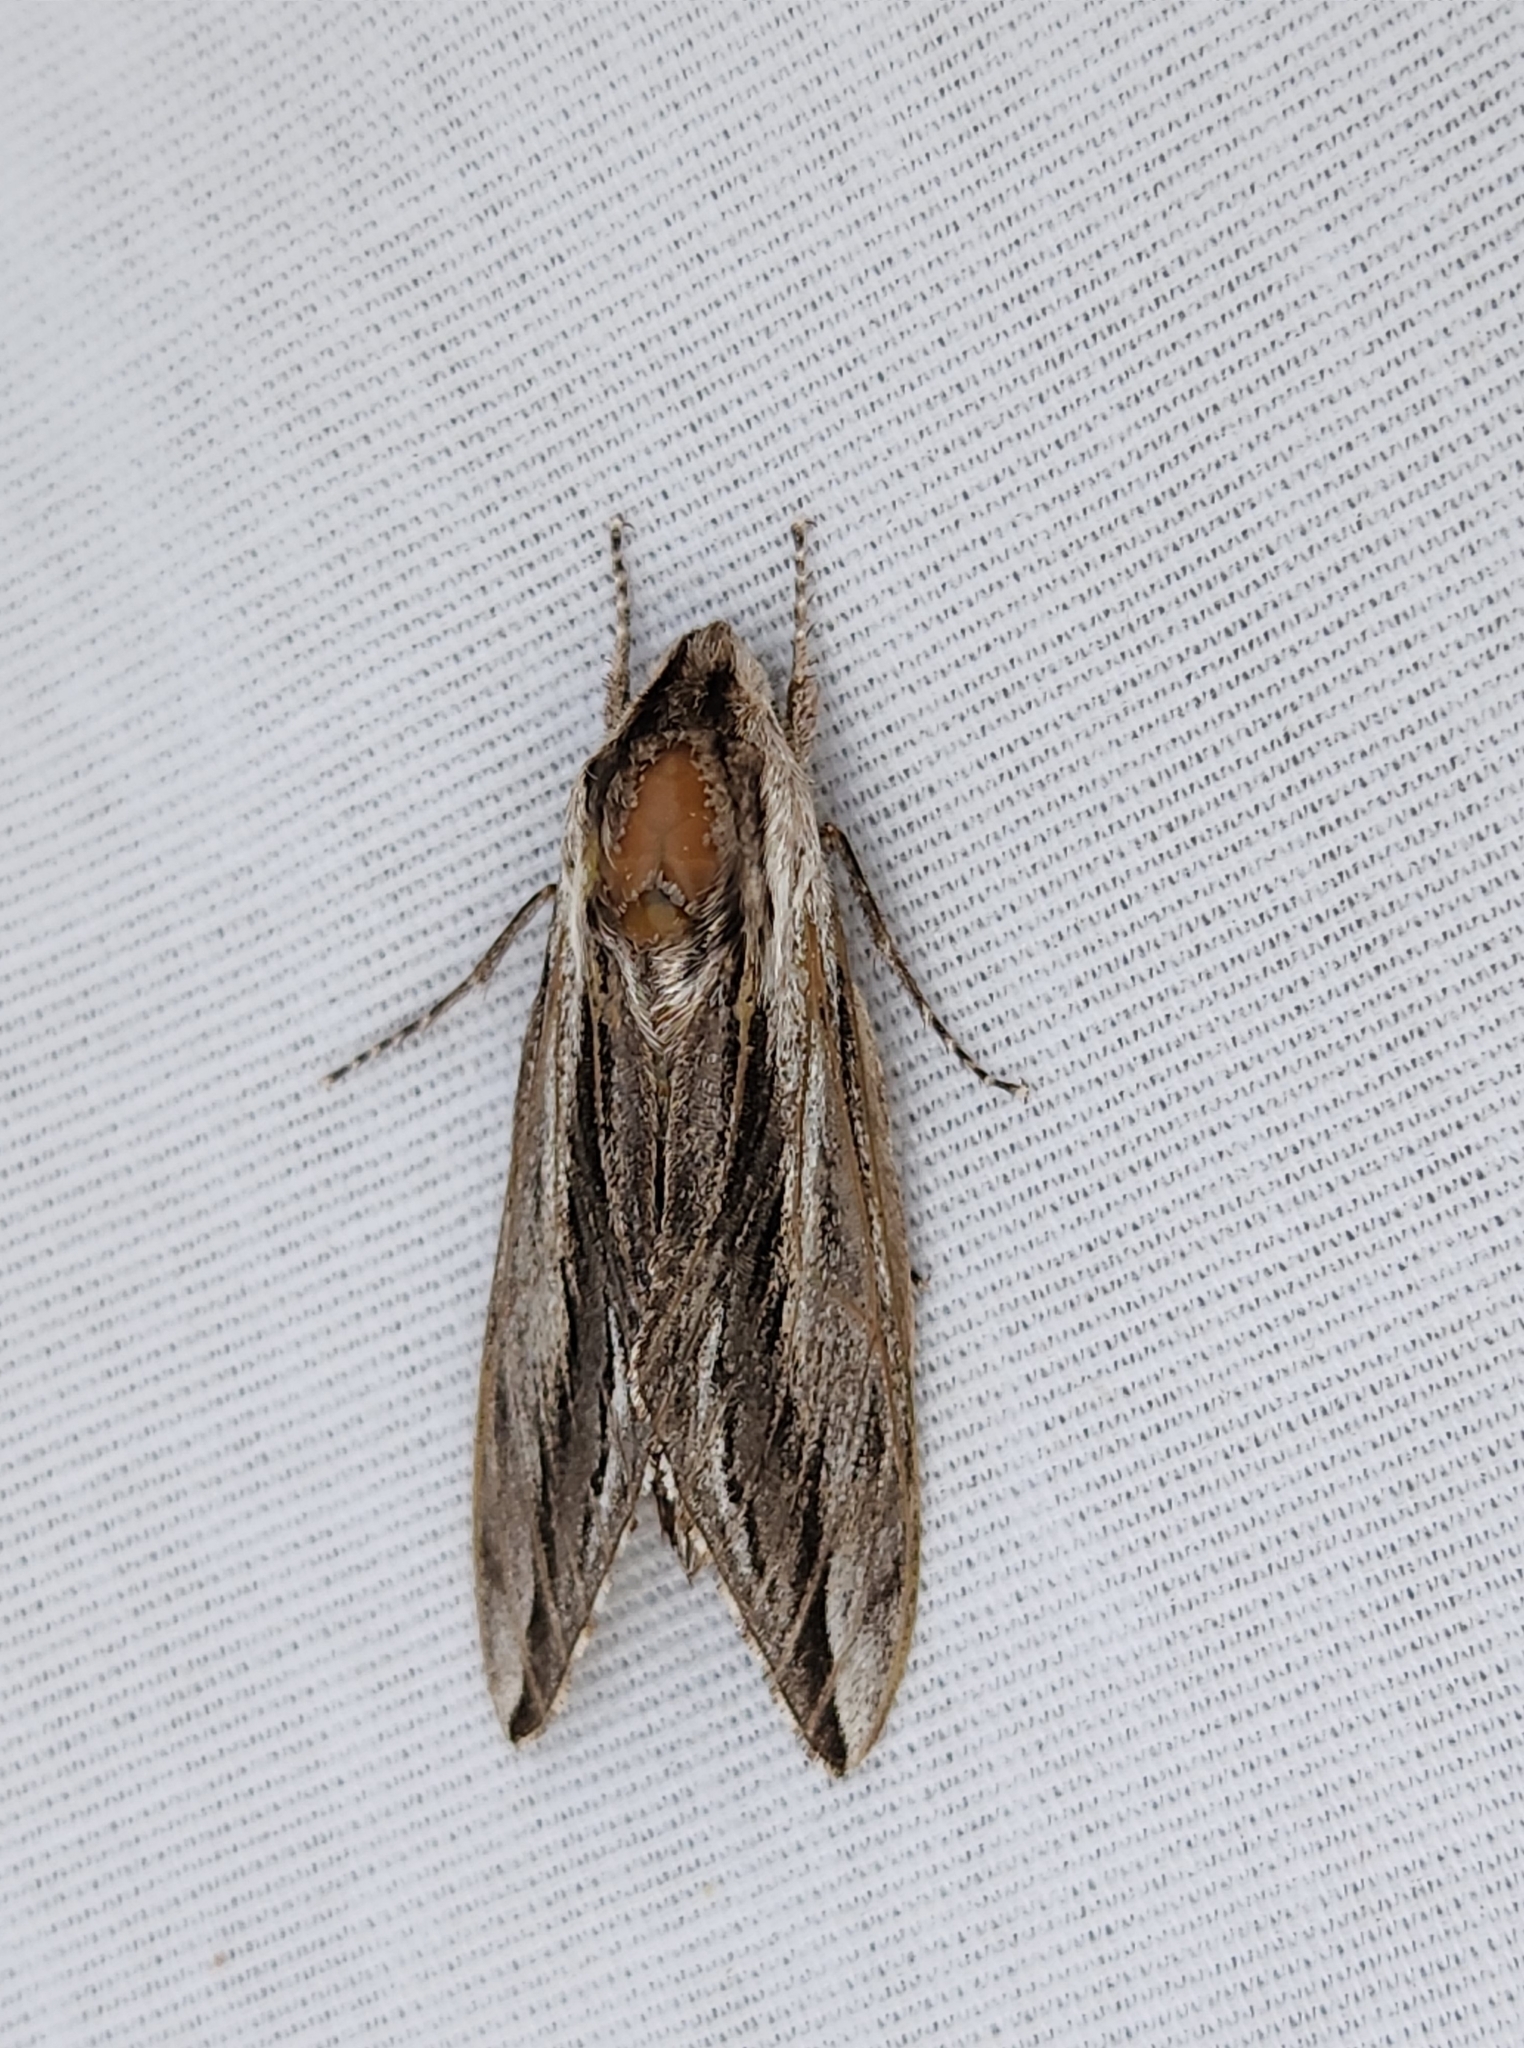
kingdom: Animalia
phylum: Arthropoda
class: Insecta
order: Lepidoptera
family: Sphingidae
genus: Sphinx
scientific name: Sphinx vanbuskirki
